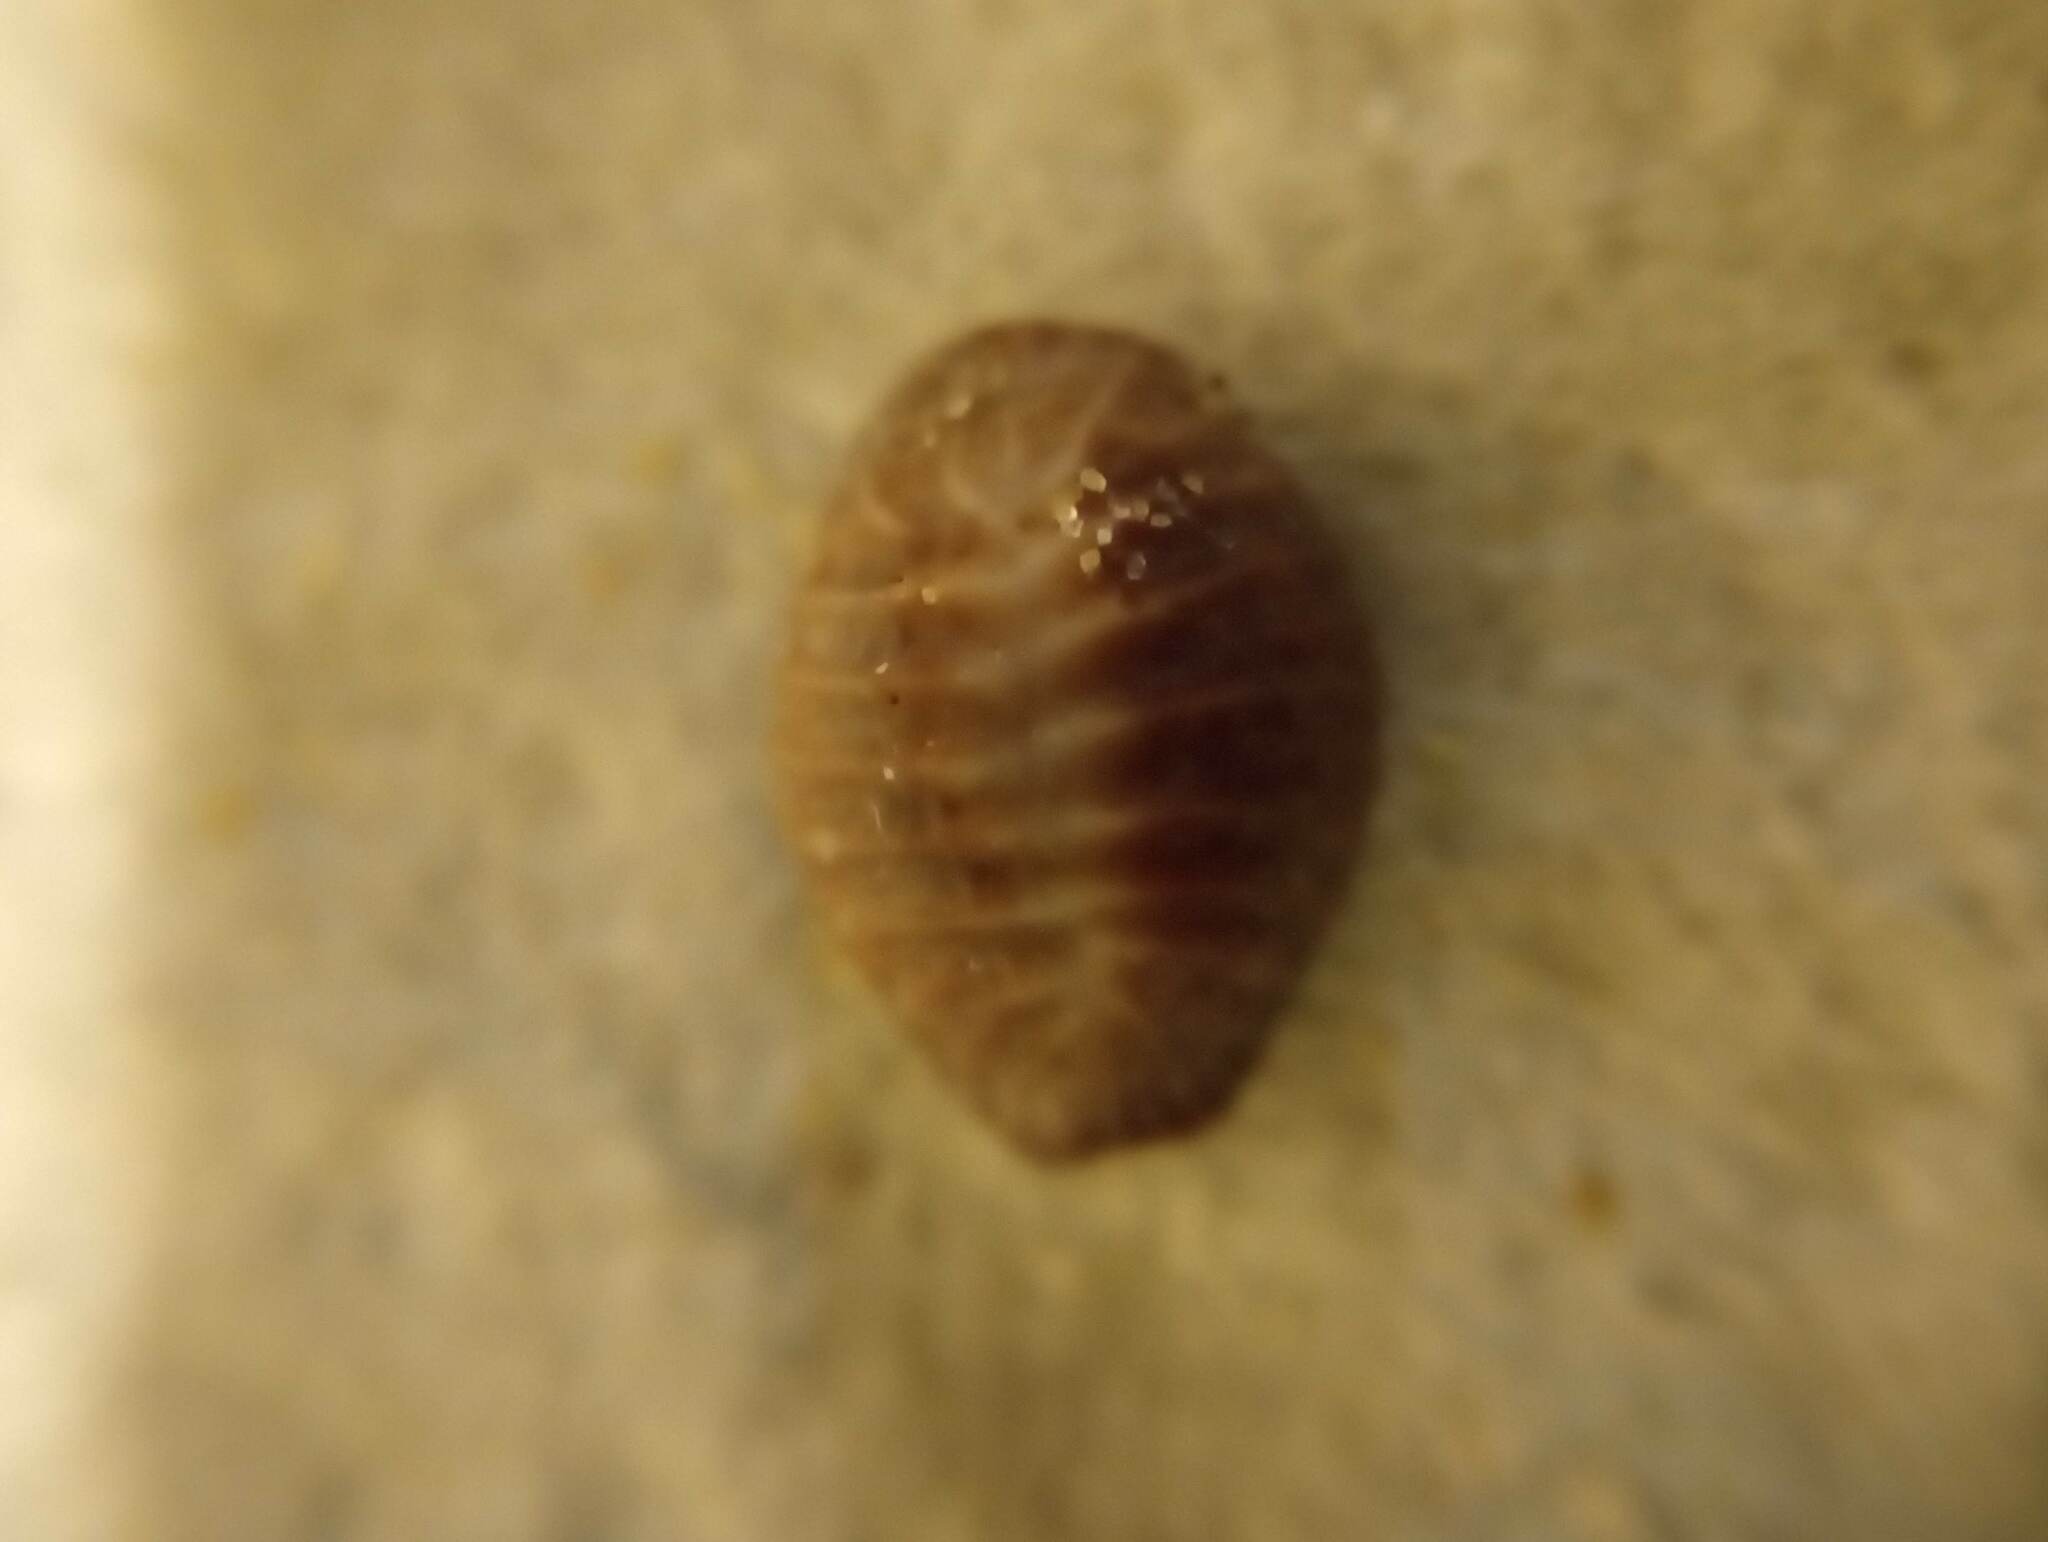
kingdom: Animalia
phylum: Mollusca
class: Gastropoda
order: Littorinimorpha
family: Triviidae
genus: Pseudopusula
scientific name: Pseudopusula californiana
